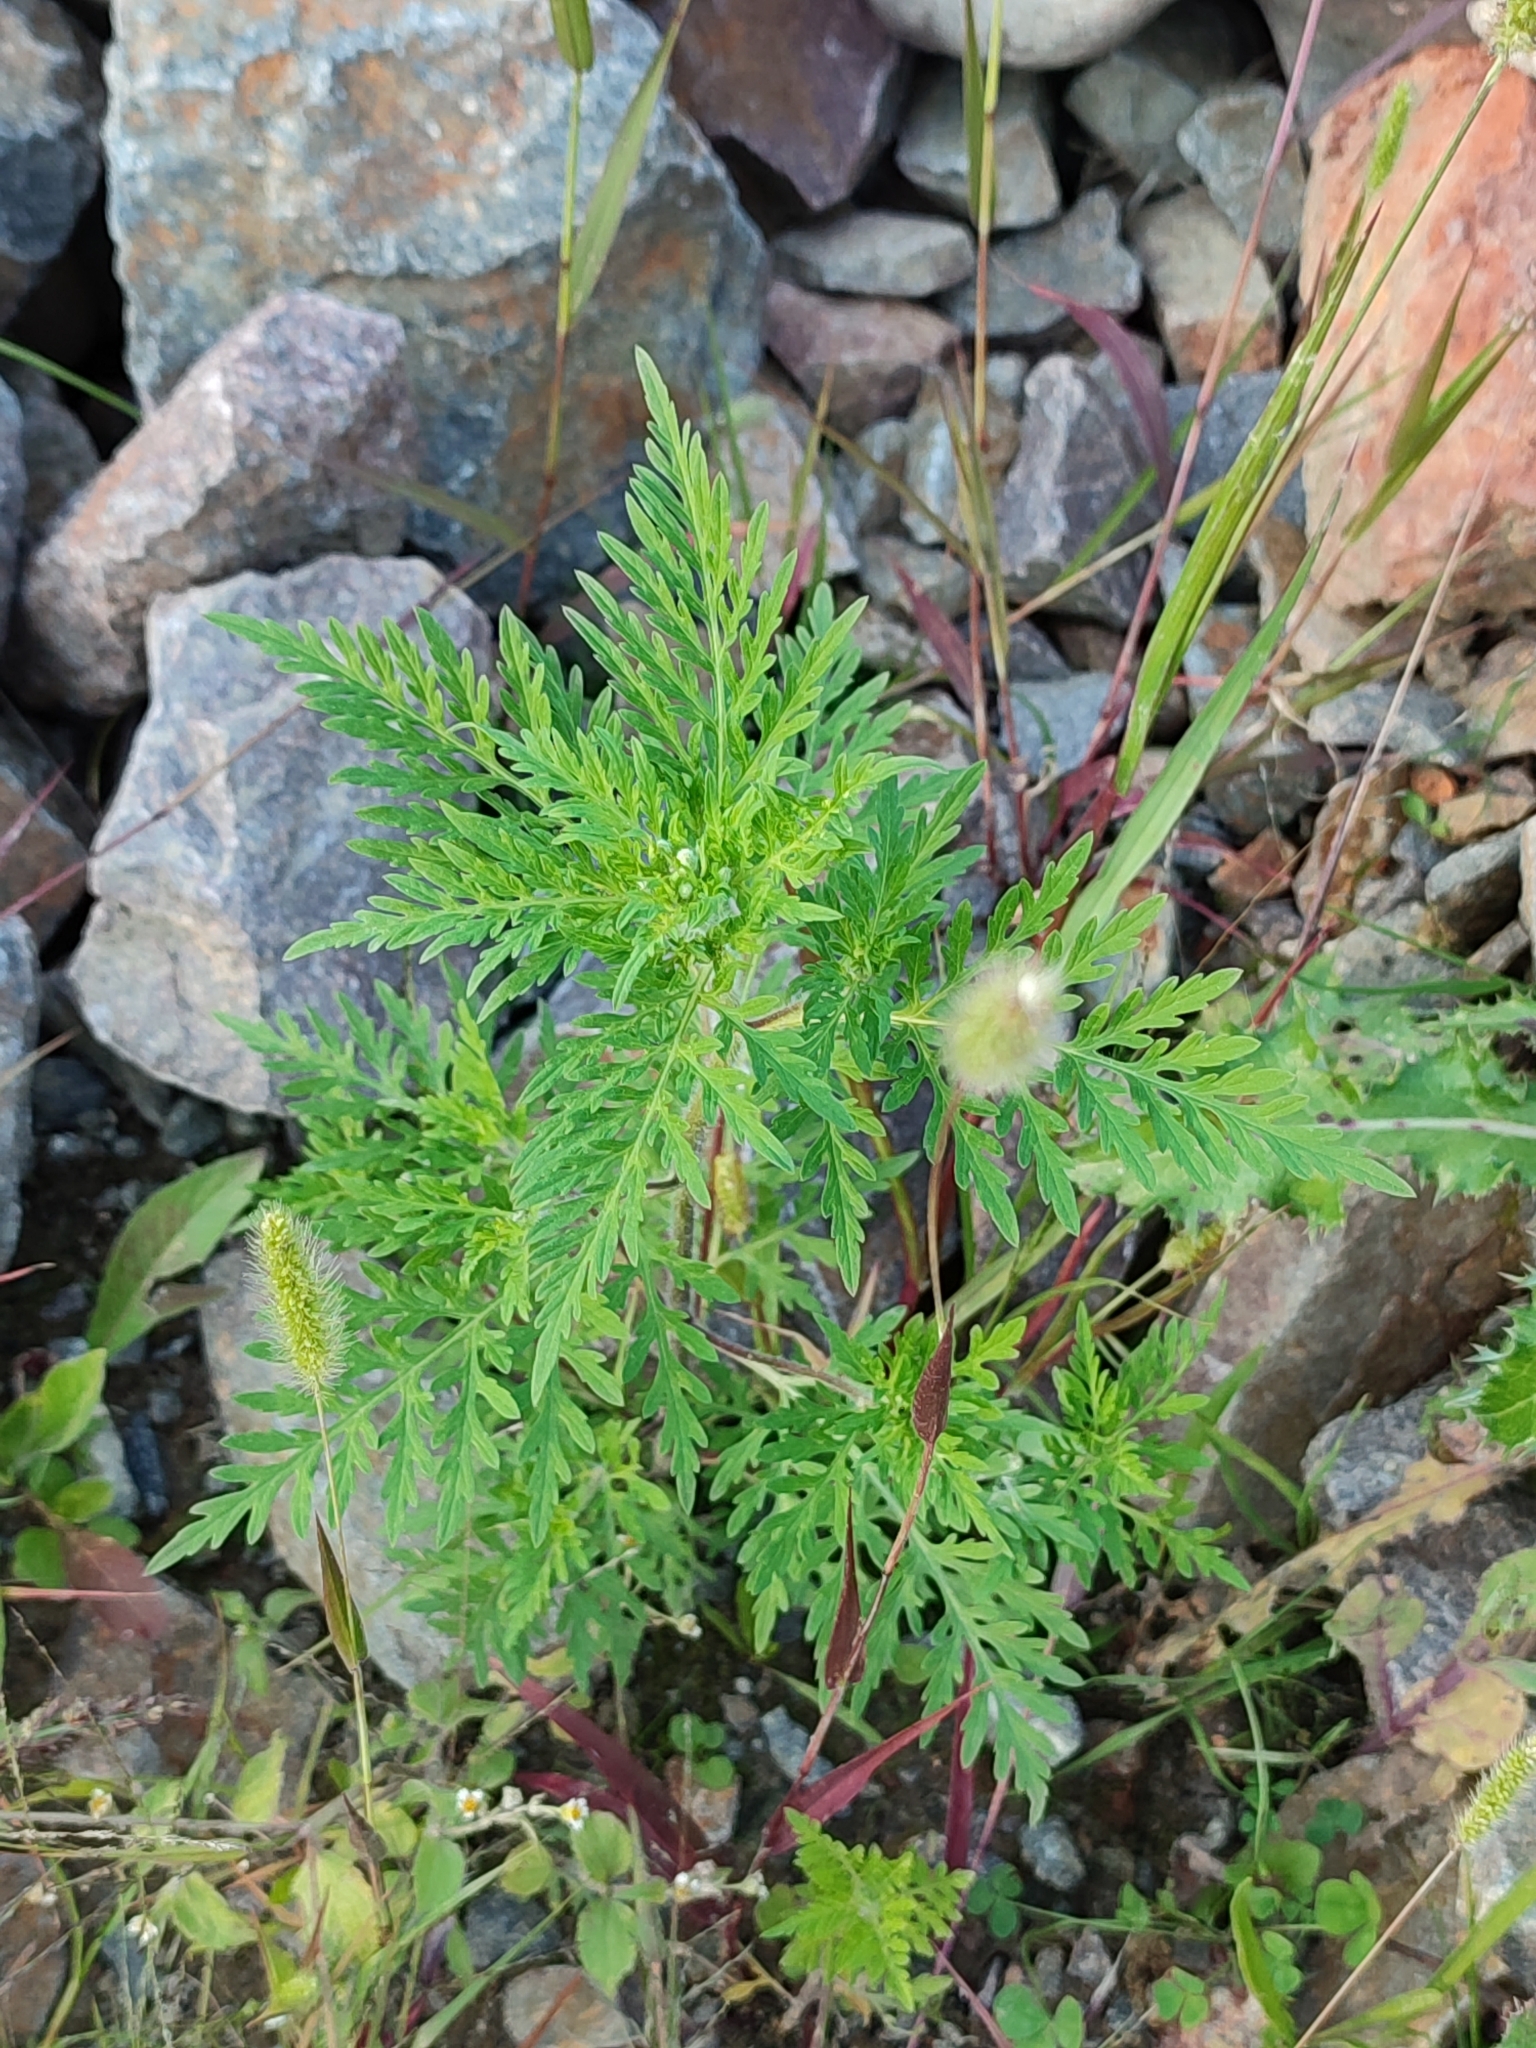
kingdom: Plantae
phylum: Tracheophyta
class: Magnoliopsida
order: Asterales
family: Asteraceae
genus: Ambrosia
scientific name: Ambrosia artemisiifolia
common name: Annual ragweed
